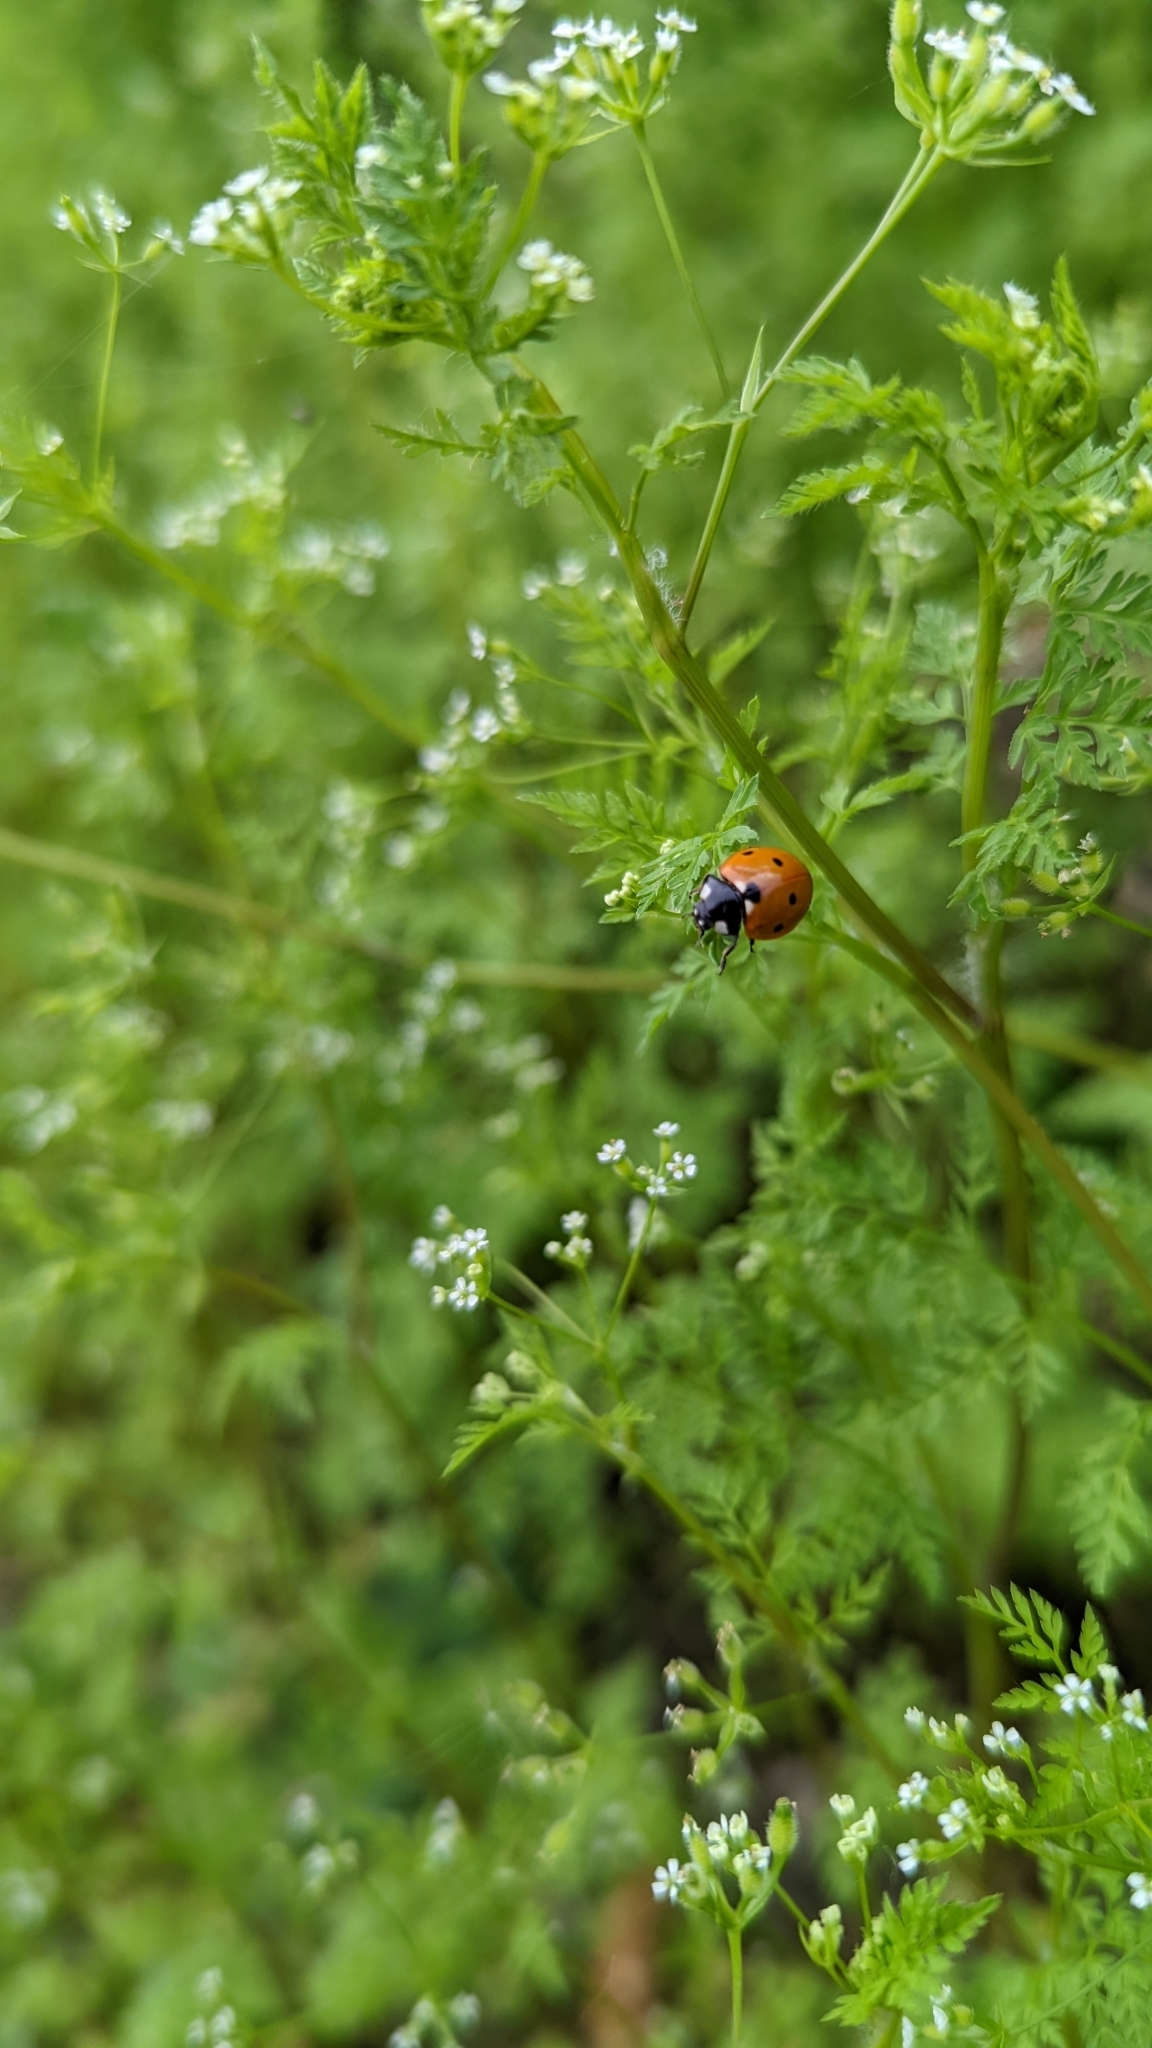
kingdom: Animalia
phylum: Arthropoda
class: Insecta
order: Coleoptera
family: Coccinellidae
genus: Coccinella
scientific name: Coccinella septempunctata
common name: Sevenspotted lady beetle
